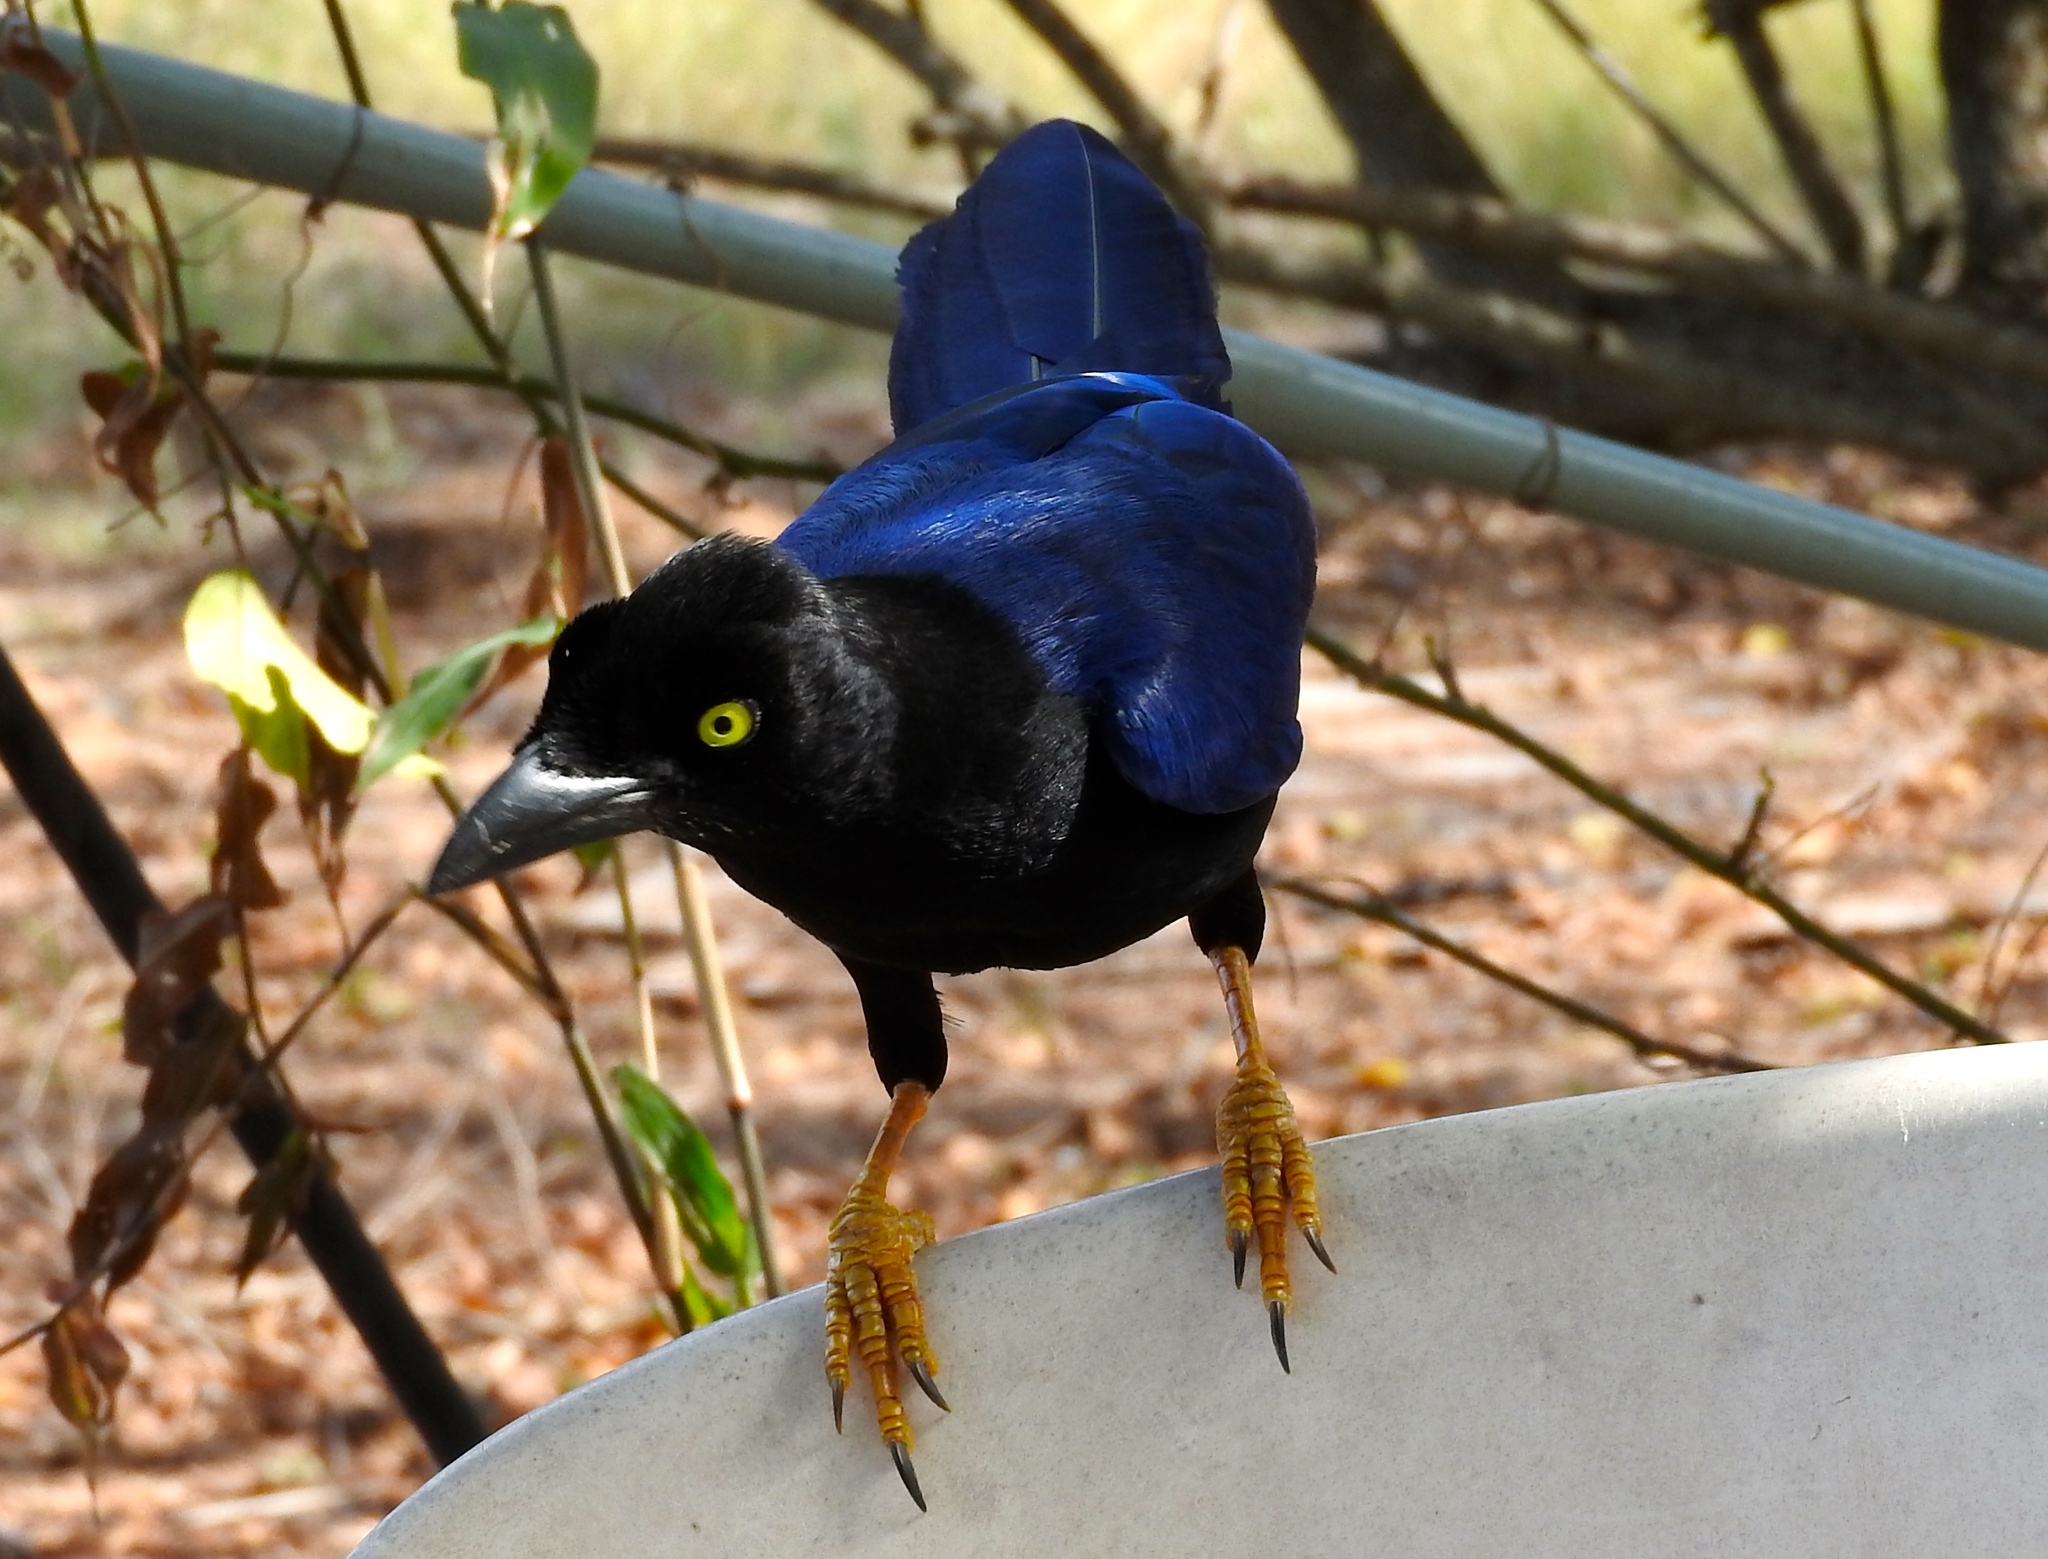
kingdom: Animalia
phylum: Chordata
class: Aves
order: Passeriformes
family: Corvidae
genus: Cyanocorax
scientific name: Cyanocorax beecheii
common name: Purplish-backed jay
